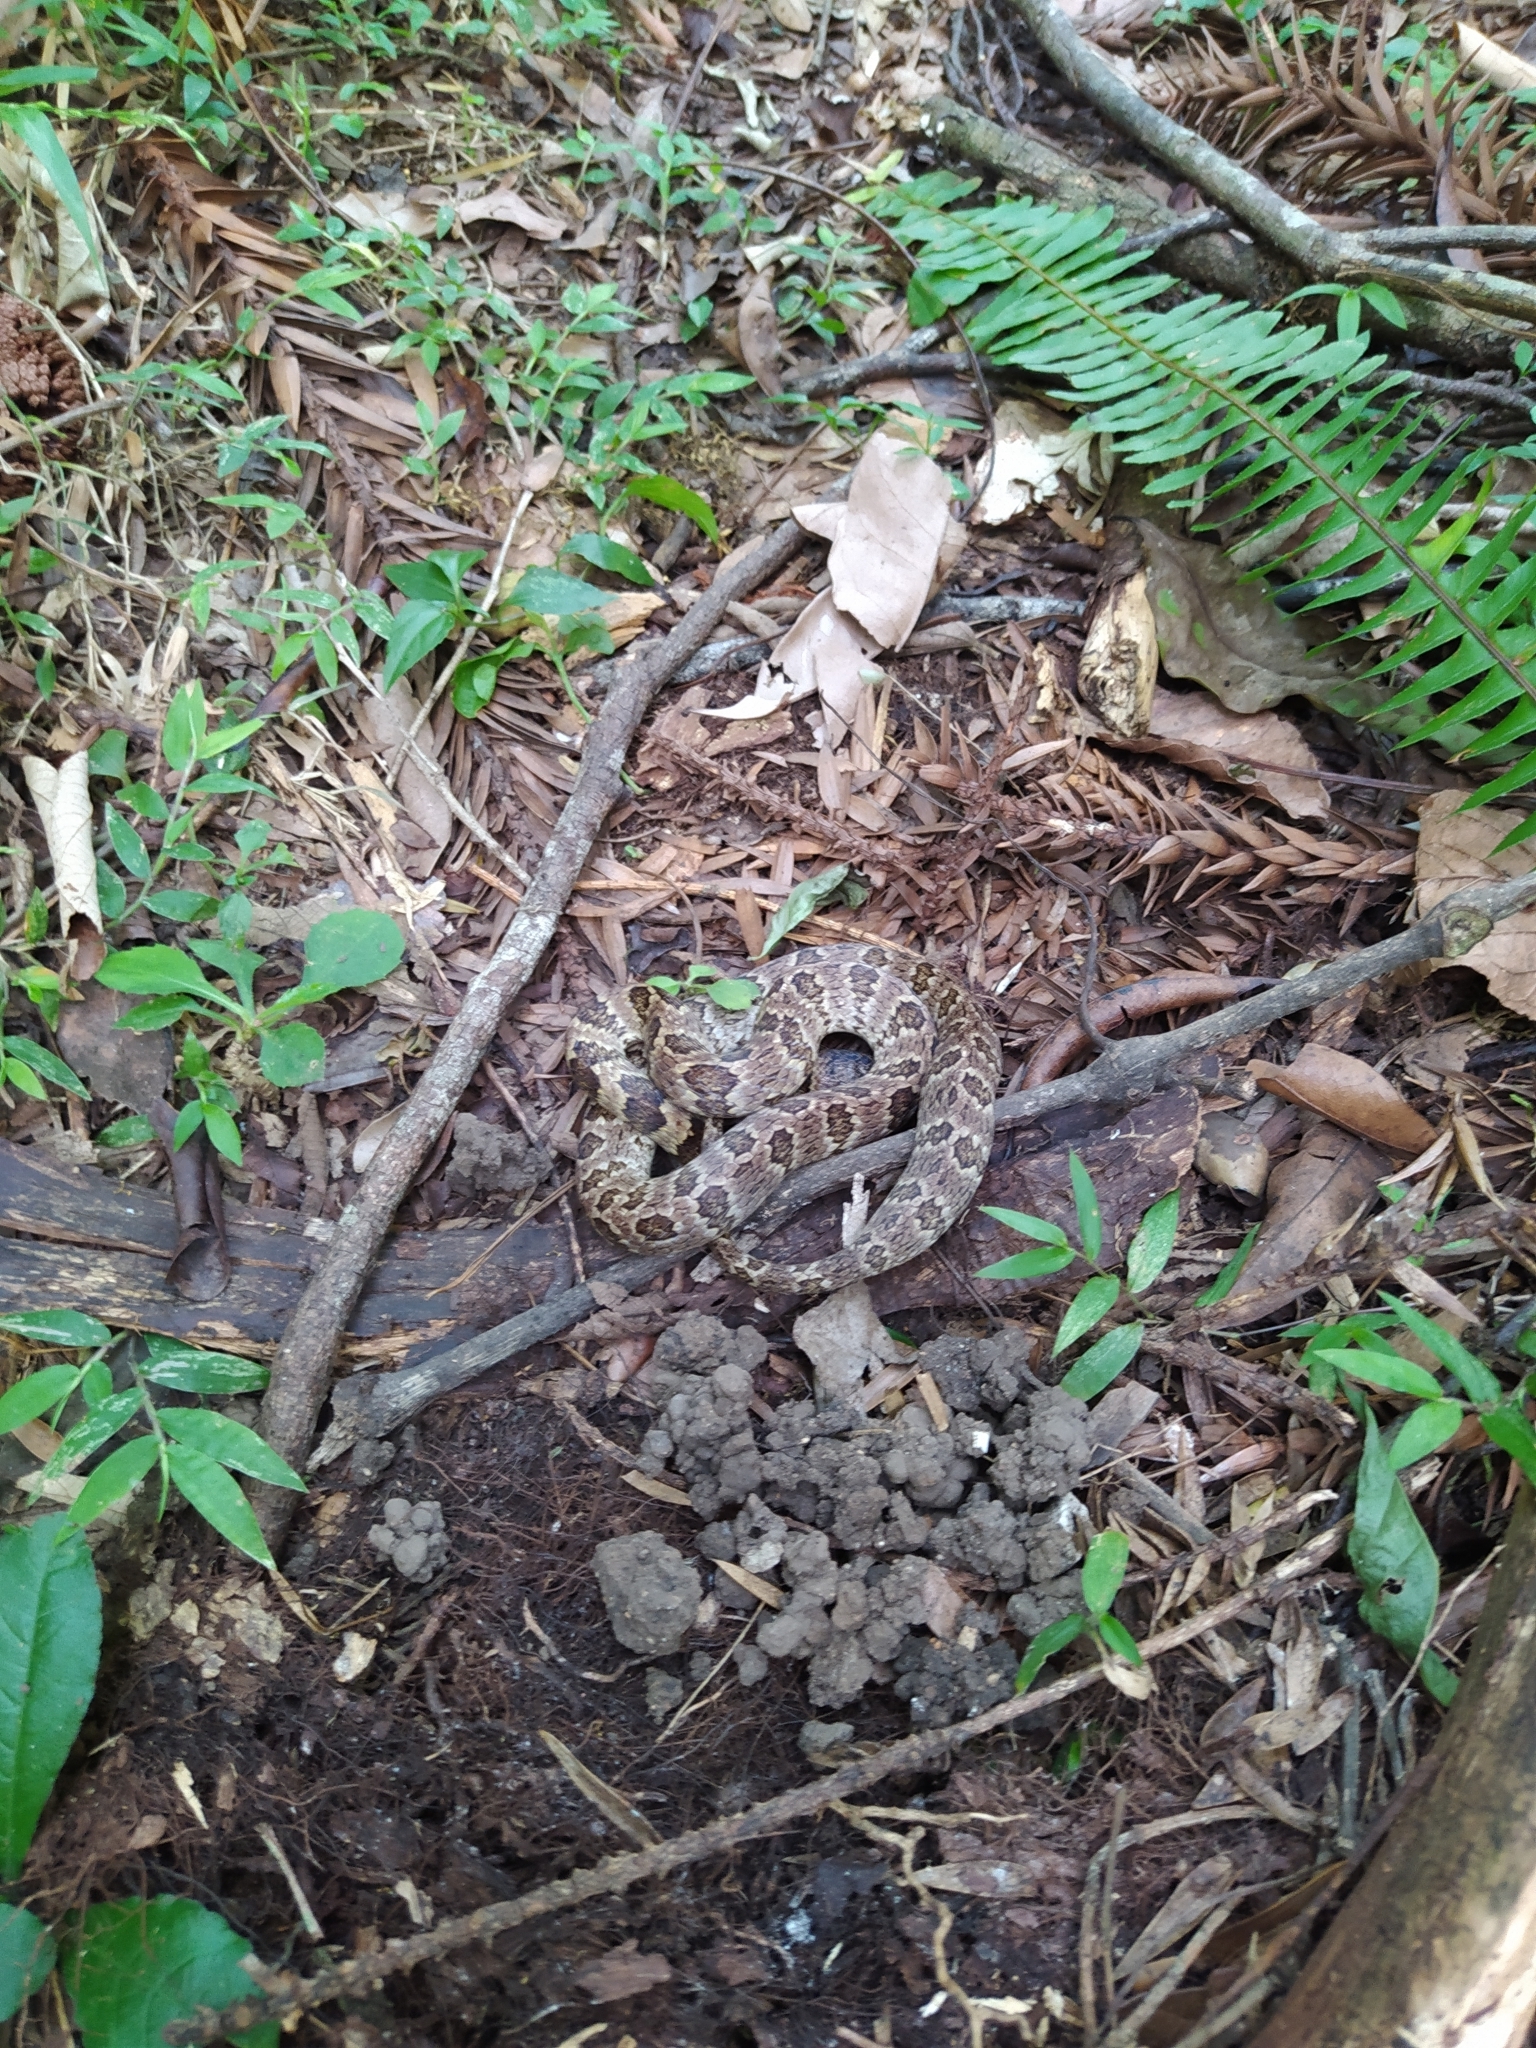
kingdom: Animalia
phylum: Chordata
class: Squamata
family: Colubridae
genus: Dipsas
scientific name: Dipsas neuwiedi
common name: Neuwied's tree snake
